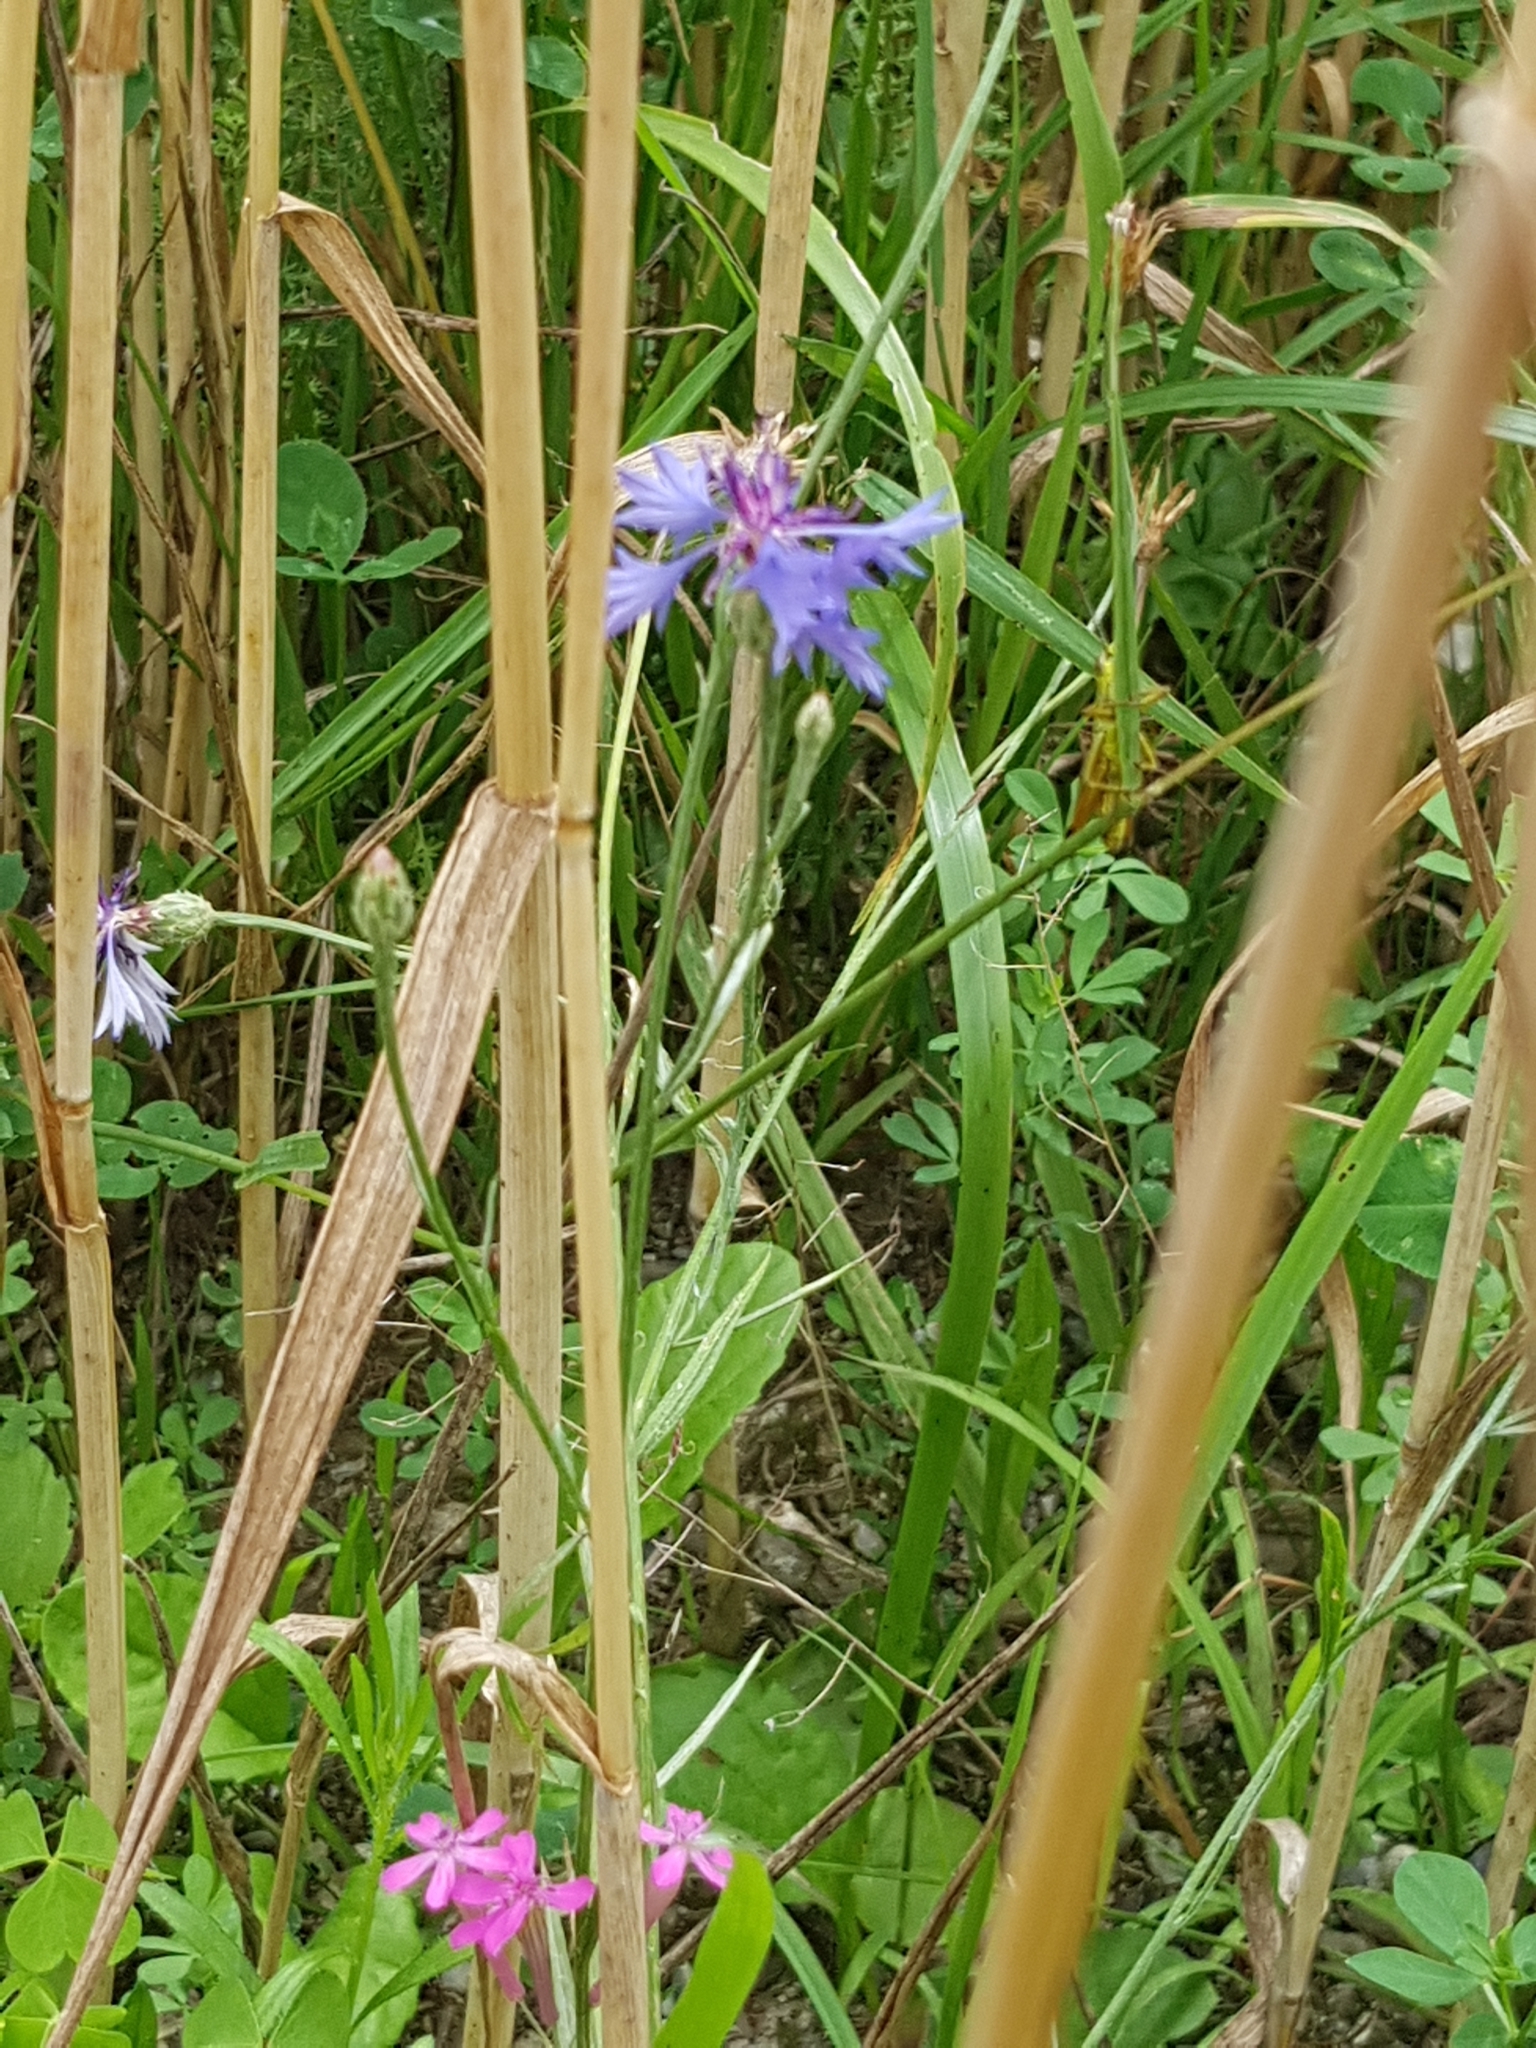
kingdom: Plantae
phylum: Tracheophyta
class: Magnoliopsida
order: Asterales
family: Asteraceae
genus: Centaurea
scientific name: Centaurea cyanus
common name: Cornflower
